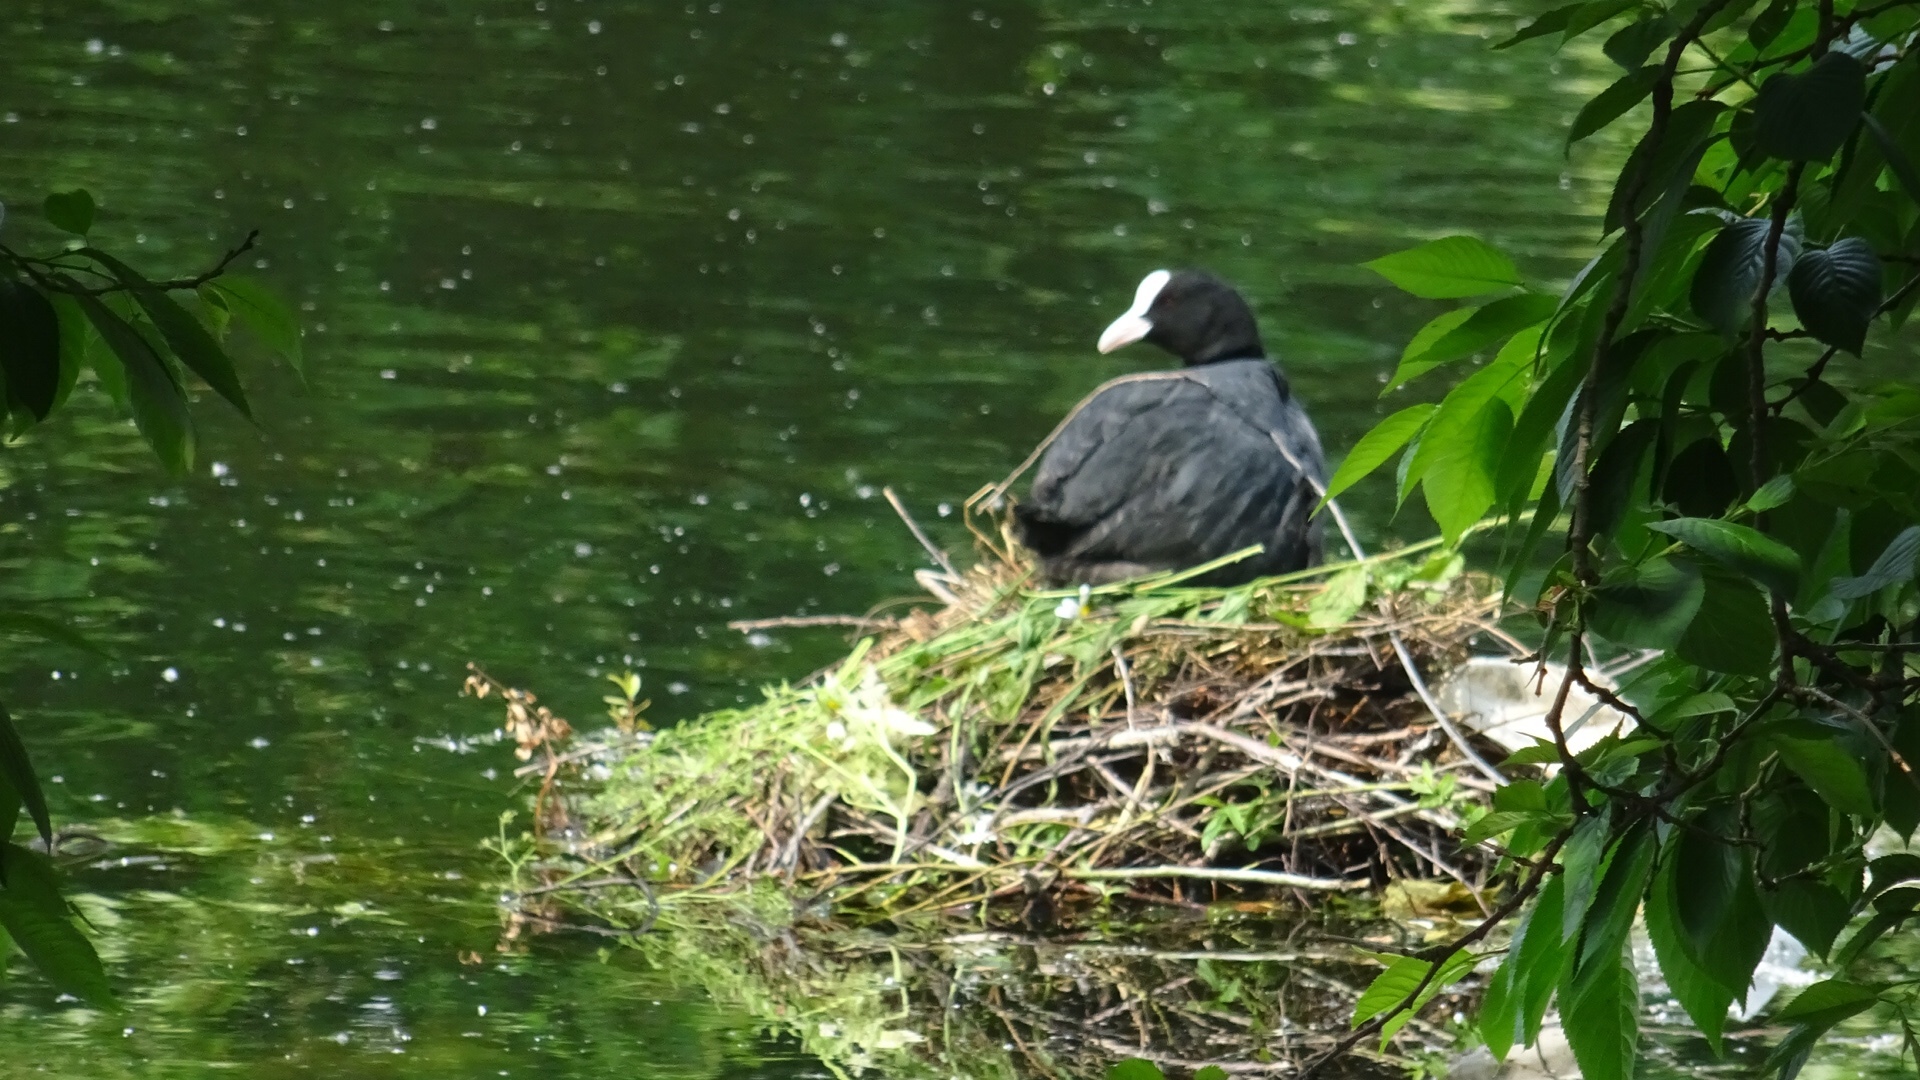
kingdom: Animalia
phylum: Chordata
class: Aves
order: Gruiformes
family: Rallidae
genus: Fulica
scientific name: Fulica atra
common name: Eurasian coot
